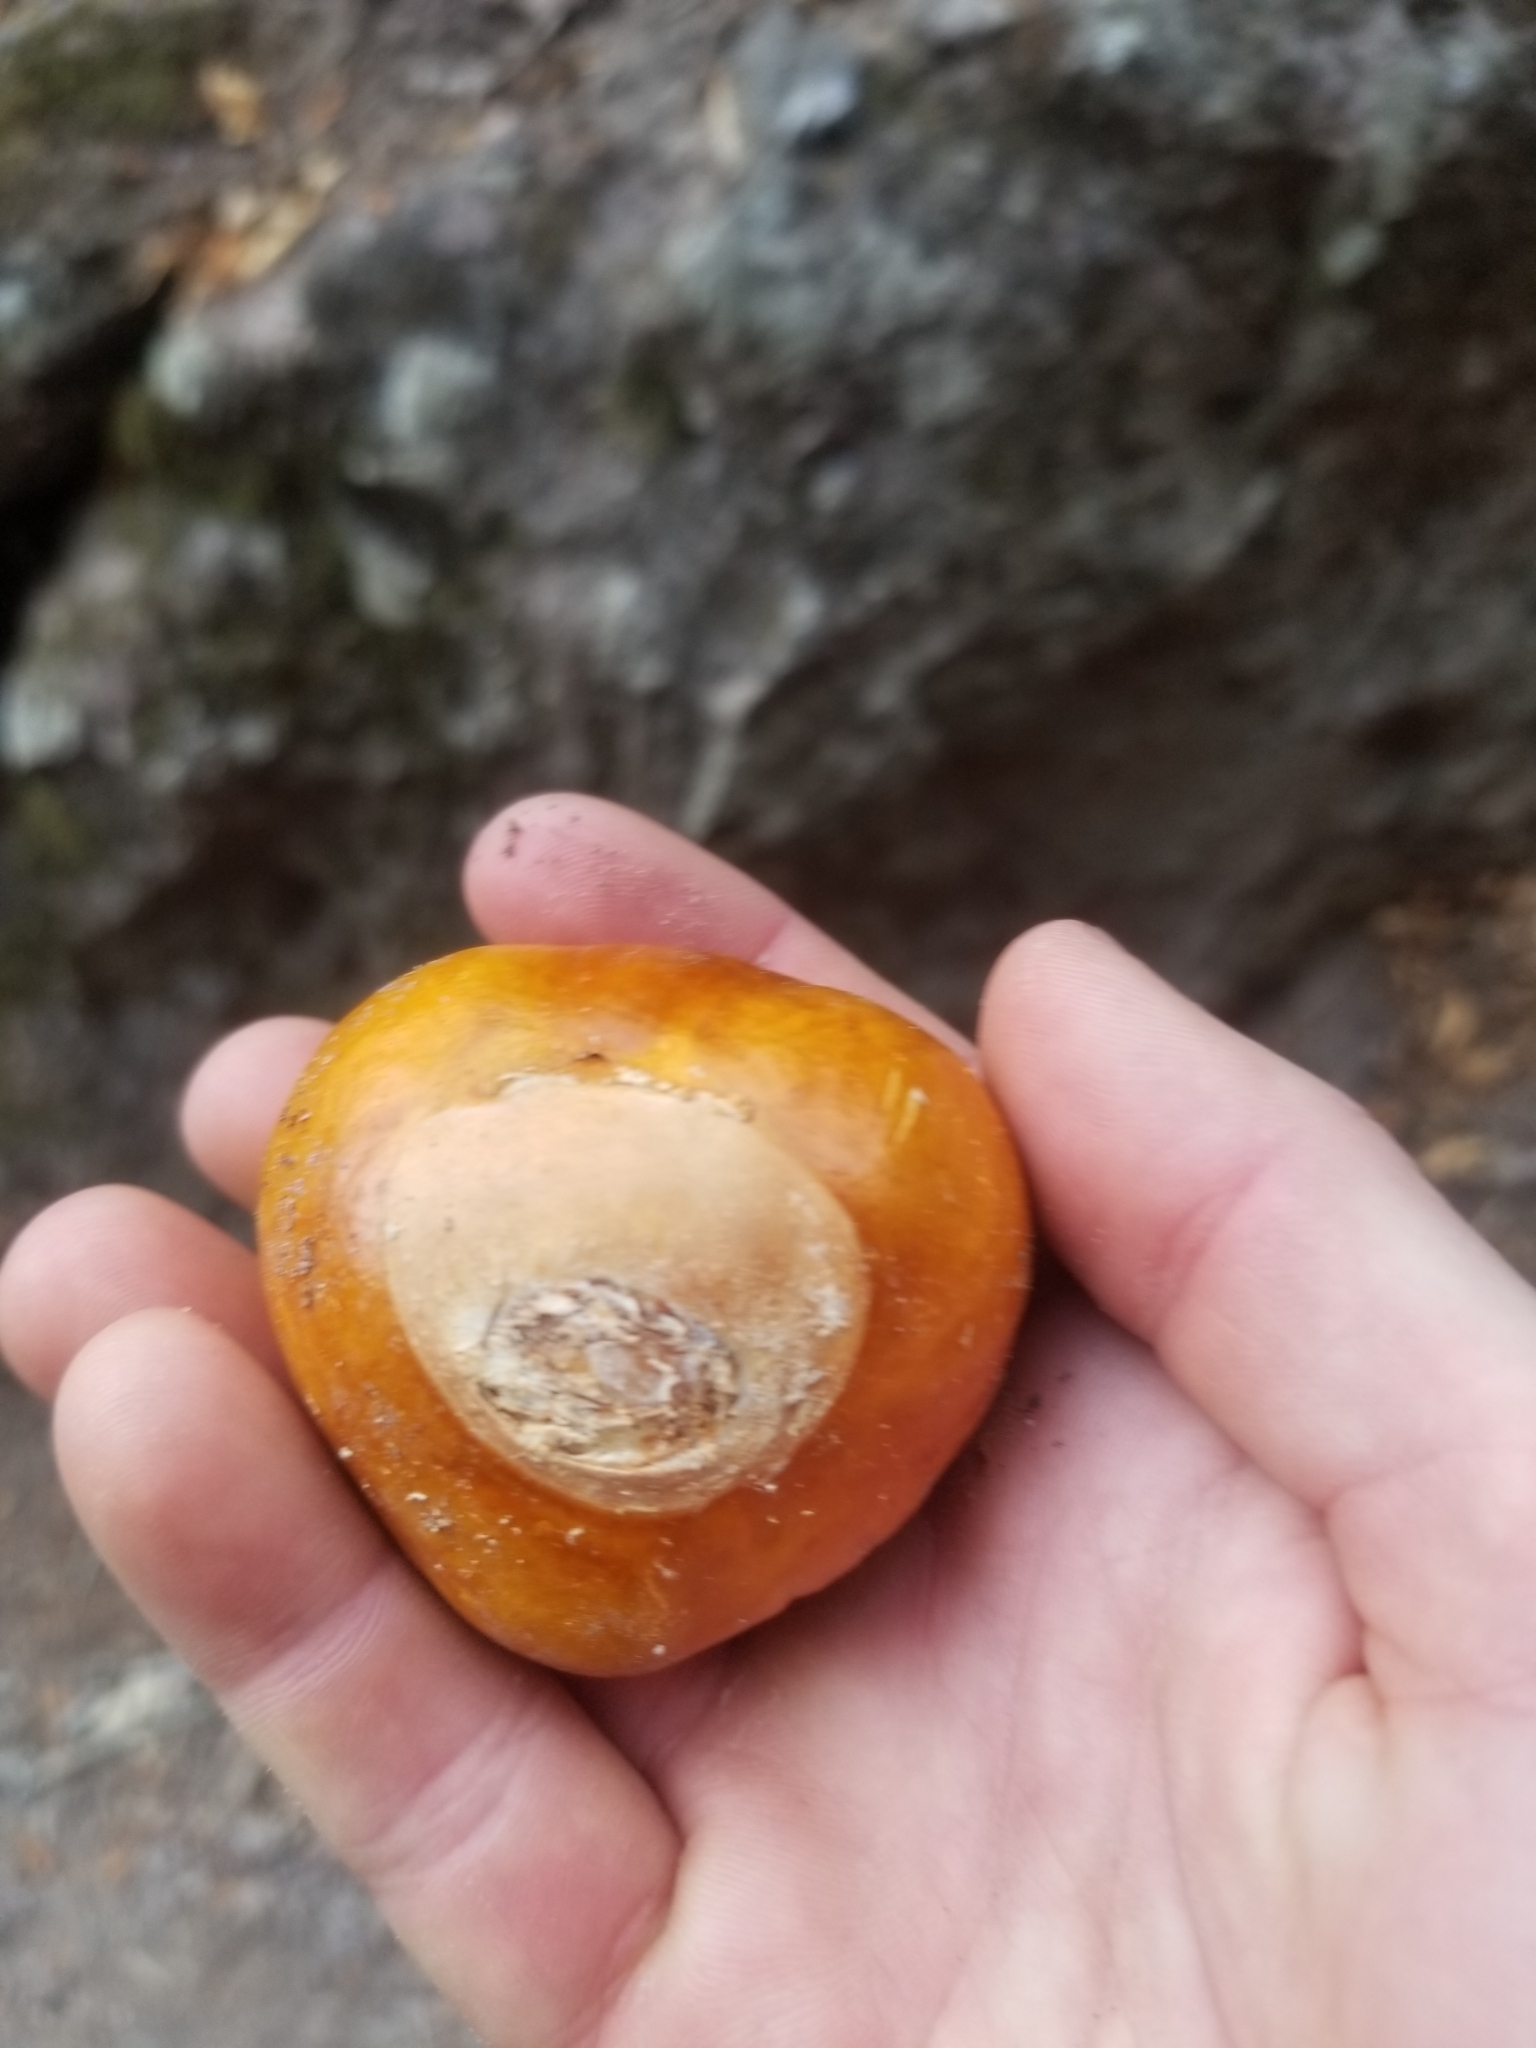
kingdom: Plantae
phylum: Tracheophyta
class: Magnoliopsida
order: Sapindales
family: Sapindaceae
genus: Aesculus
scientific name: Aesculus californica
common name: California buckeye
